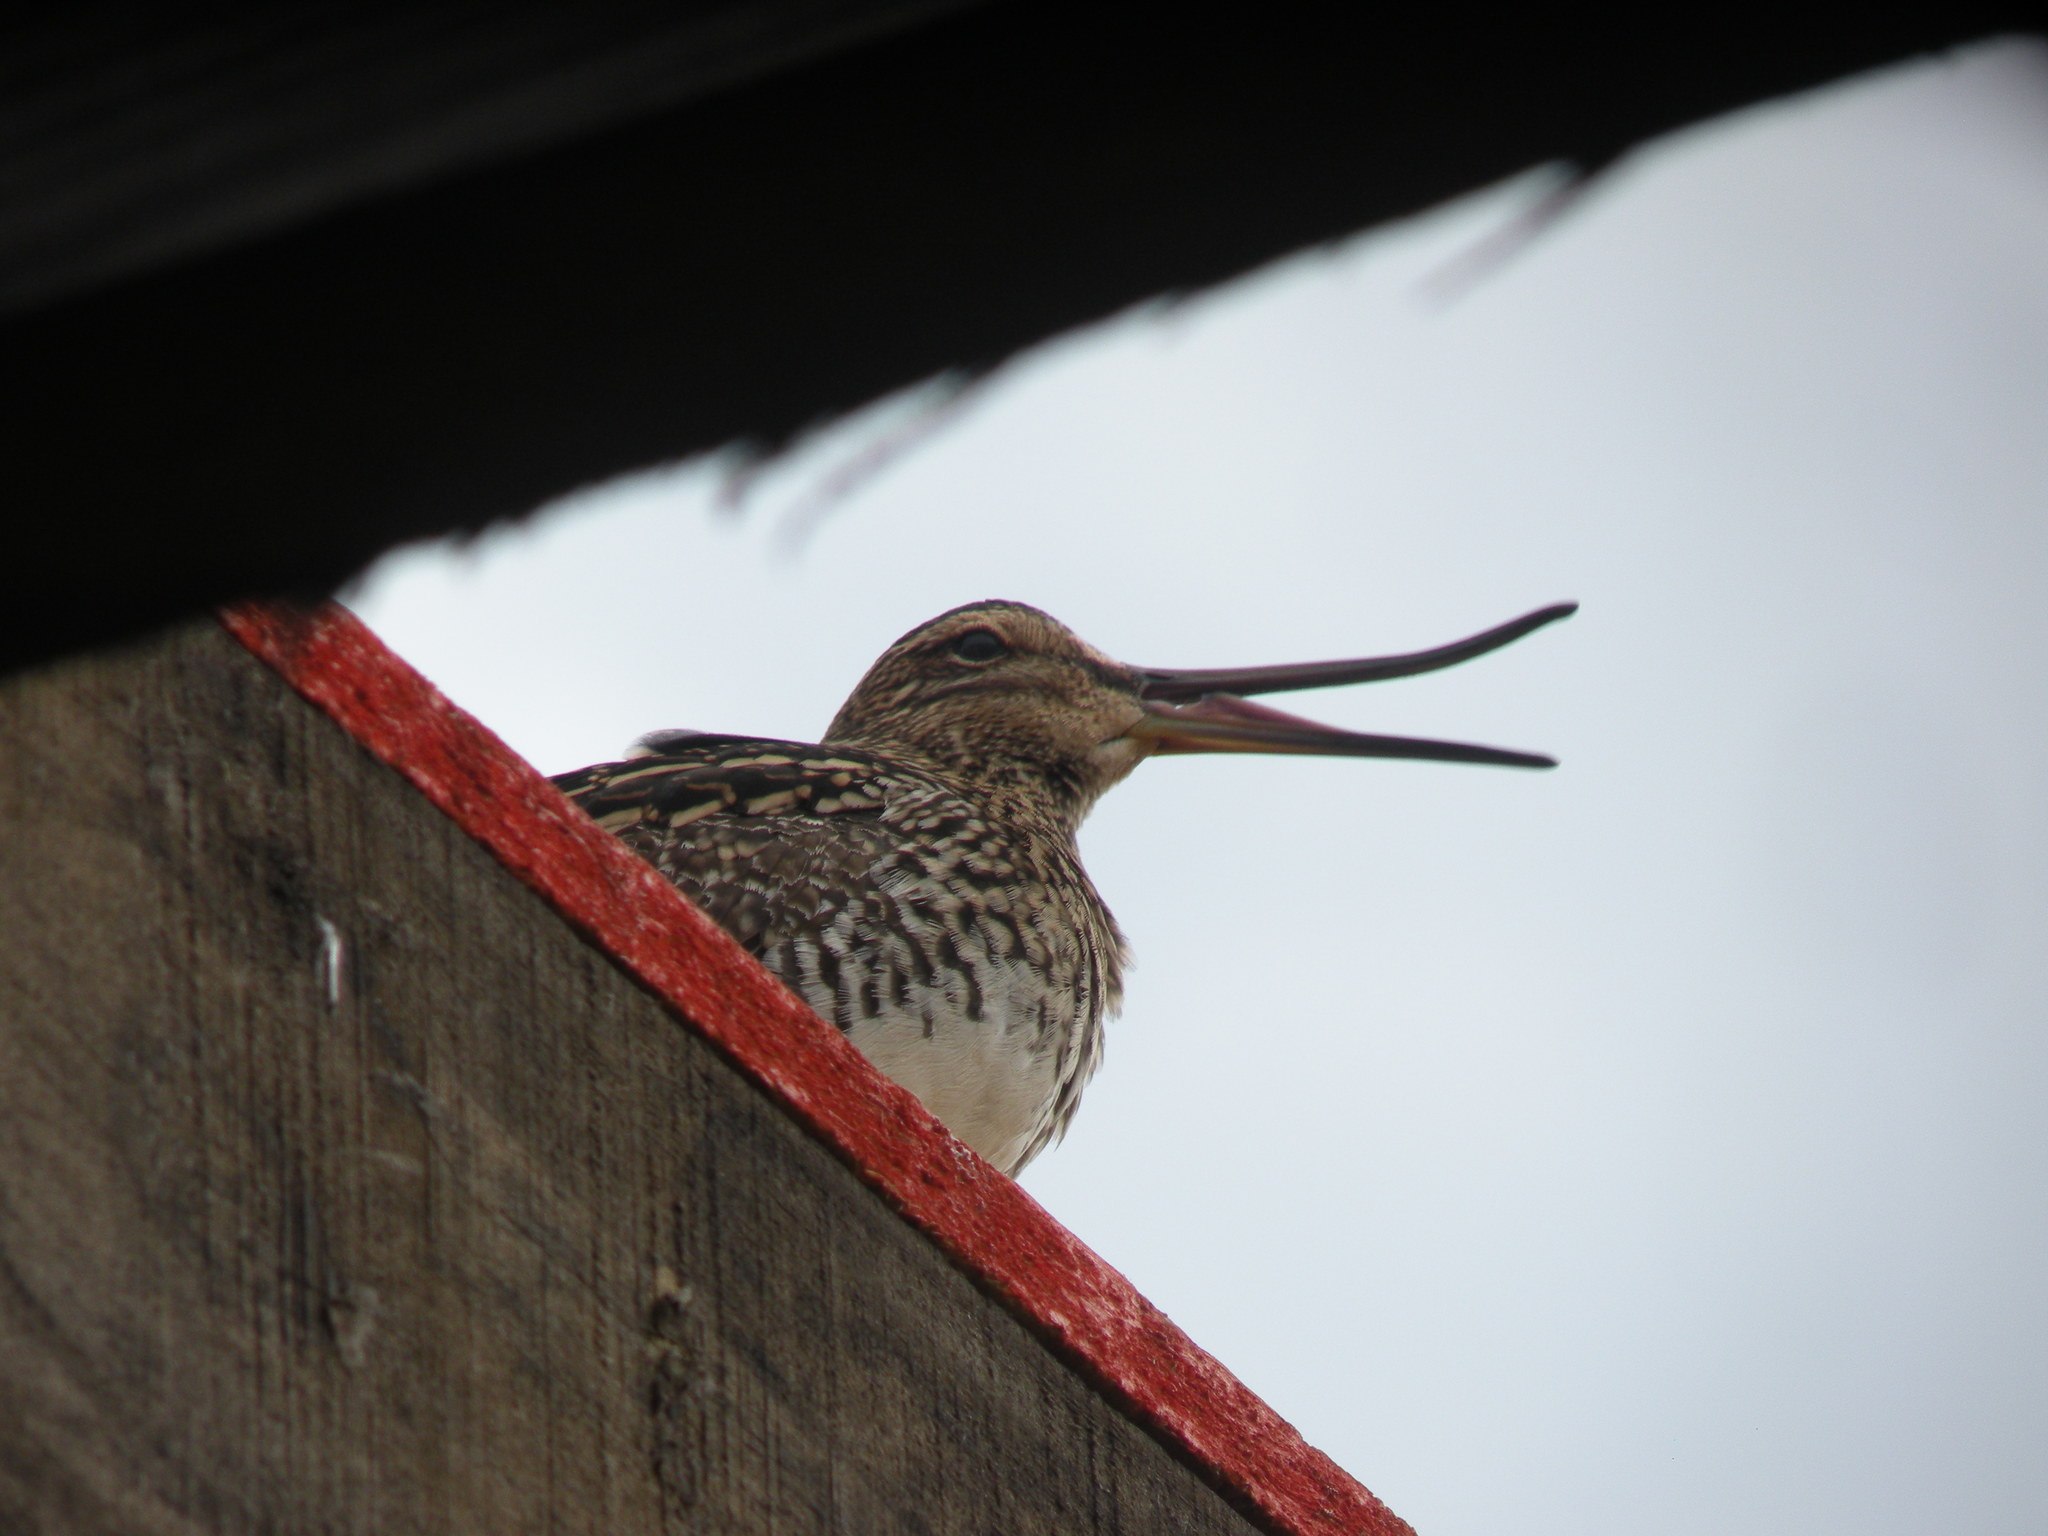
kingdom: Animalia
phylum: Chordata
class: Aves
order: Charadriiformes
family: Scolopacidae
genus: Gallinago
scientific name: Gallinago paraguaiae
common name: South american snipe
